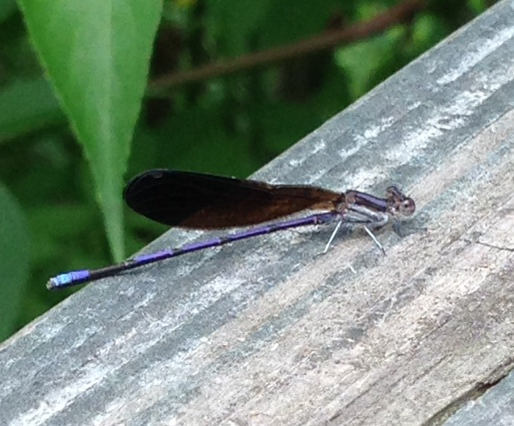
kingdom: Animalia
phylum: Arthropoda
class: Insecta
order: Odonata
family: Coenagrionidae
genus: Argia
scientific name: Argia fumipennis
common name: Variable dancer
